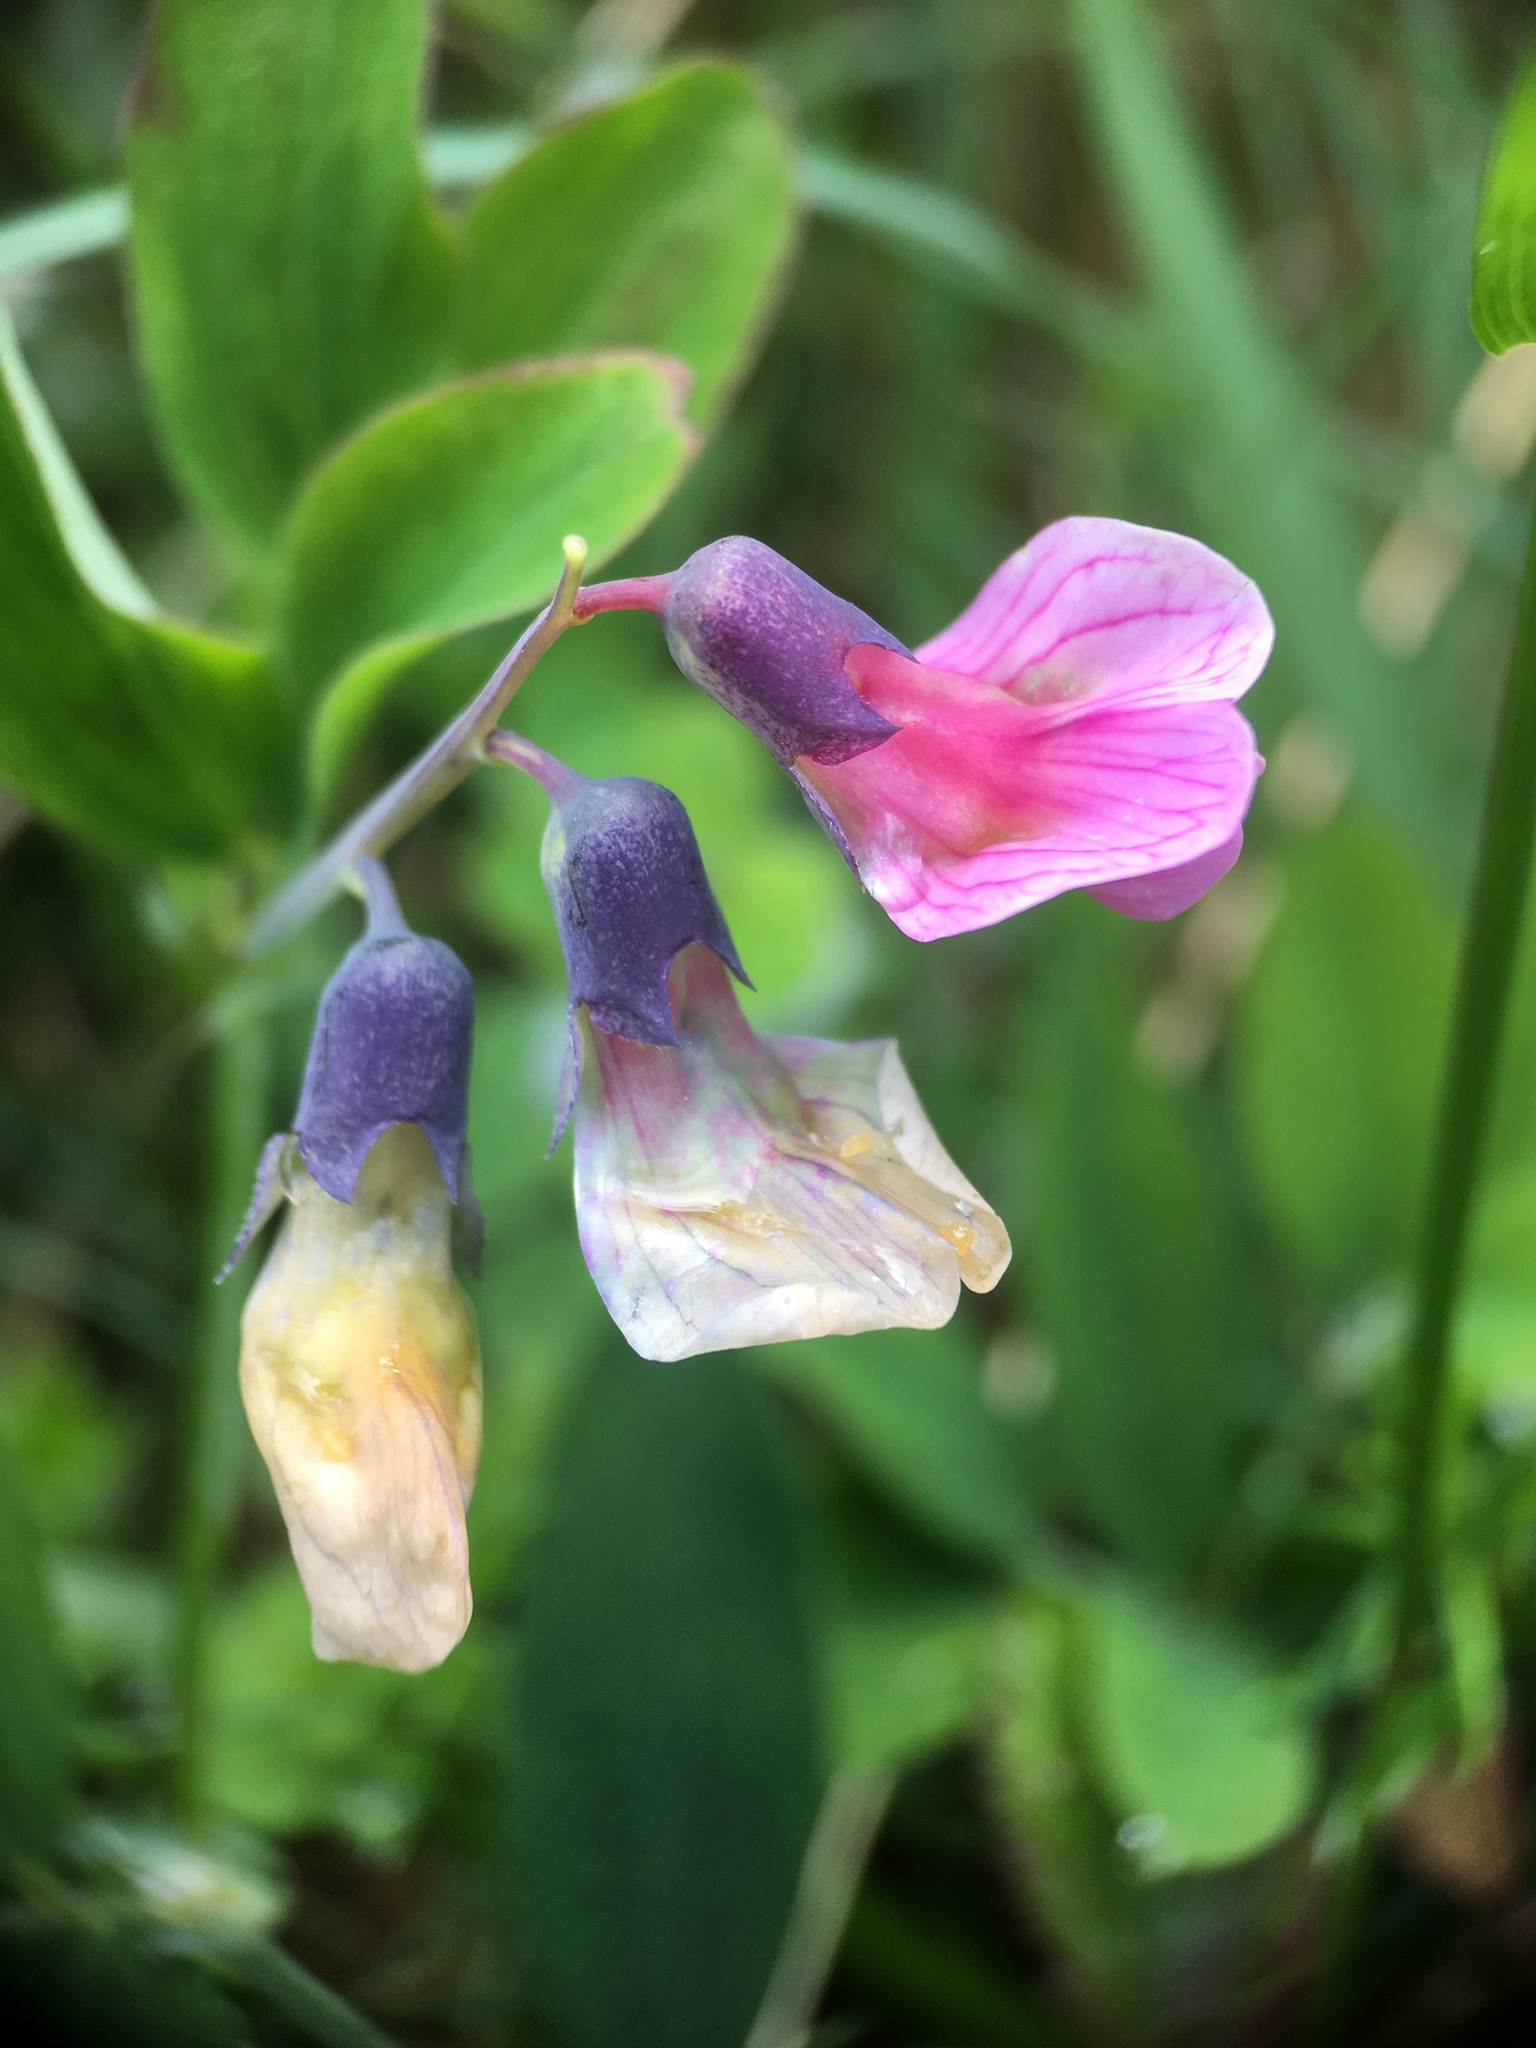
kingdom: Plantae
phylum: Tracheophyta
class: Magnoliopsida
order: Fabales
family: Fabaceae
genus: Lathyrus
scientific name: Lathyrus linifolius
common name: Bitter-vetch
